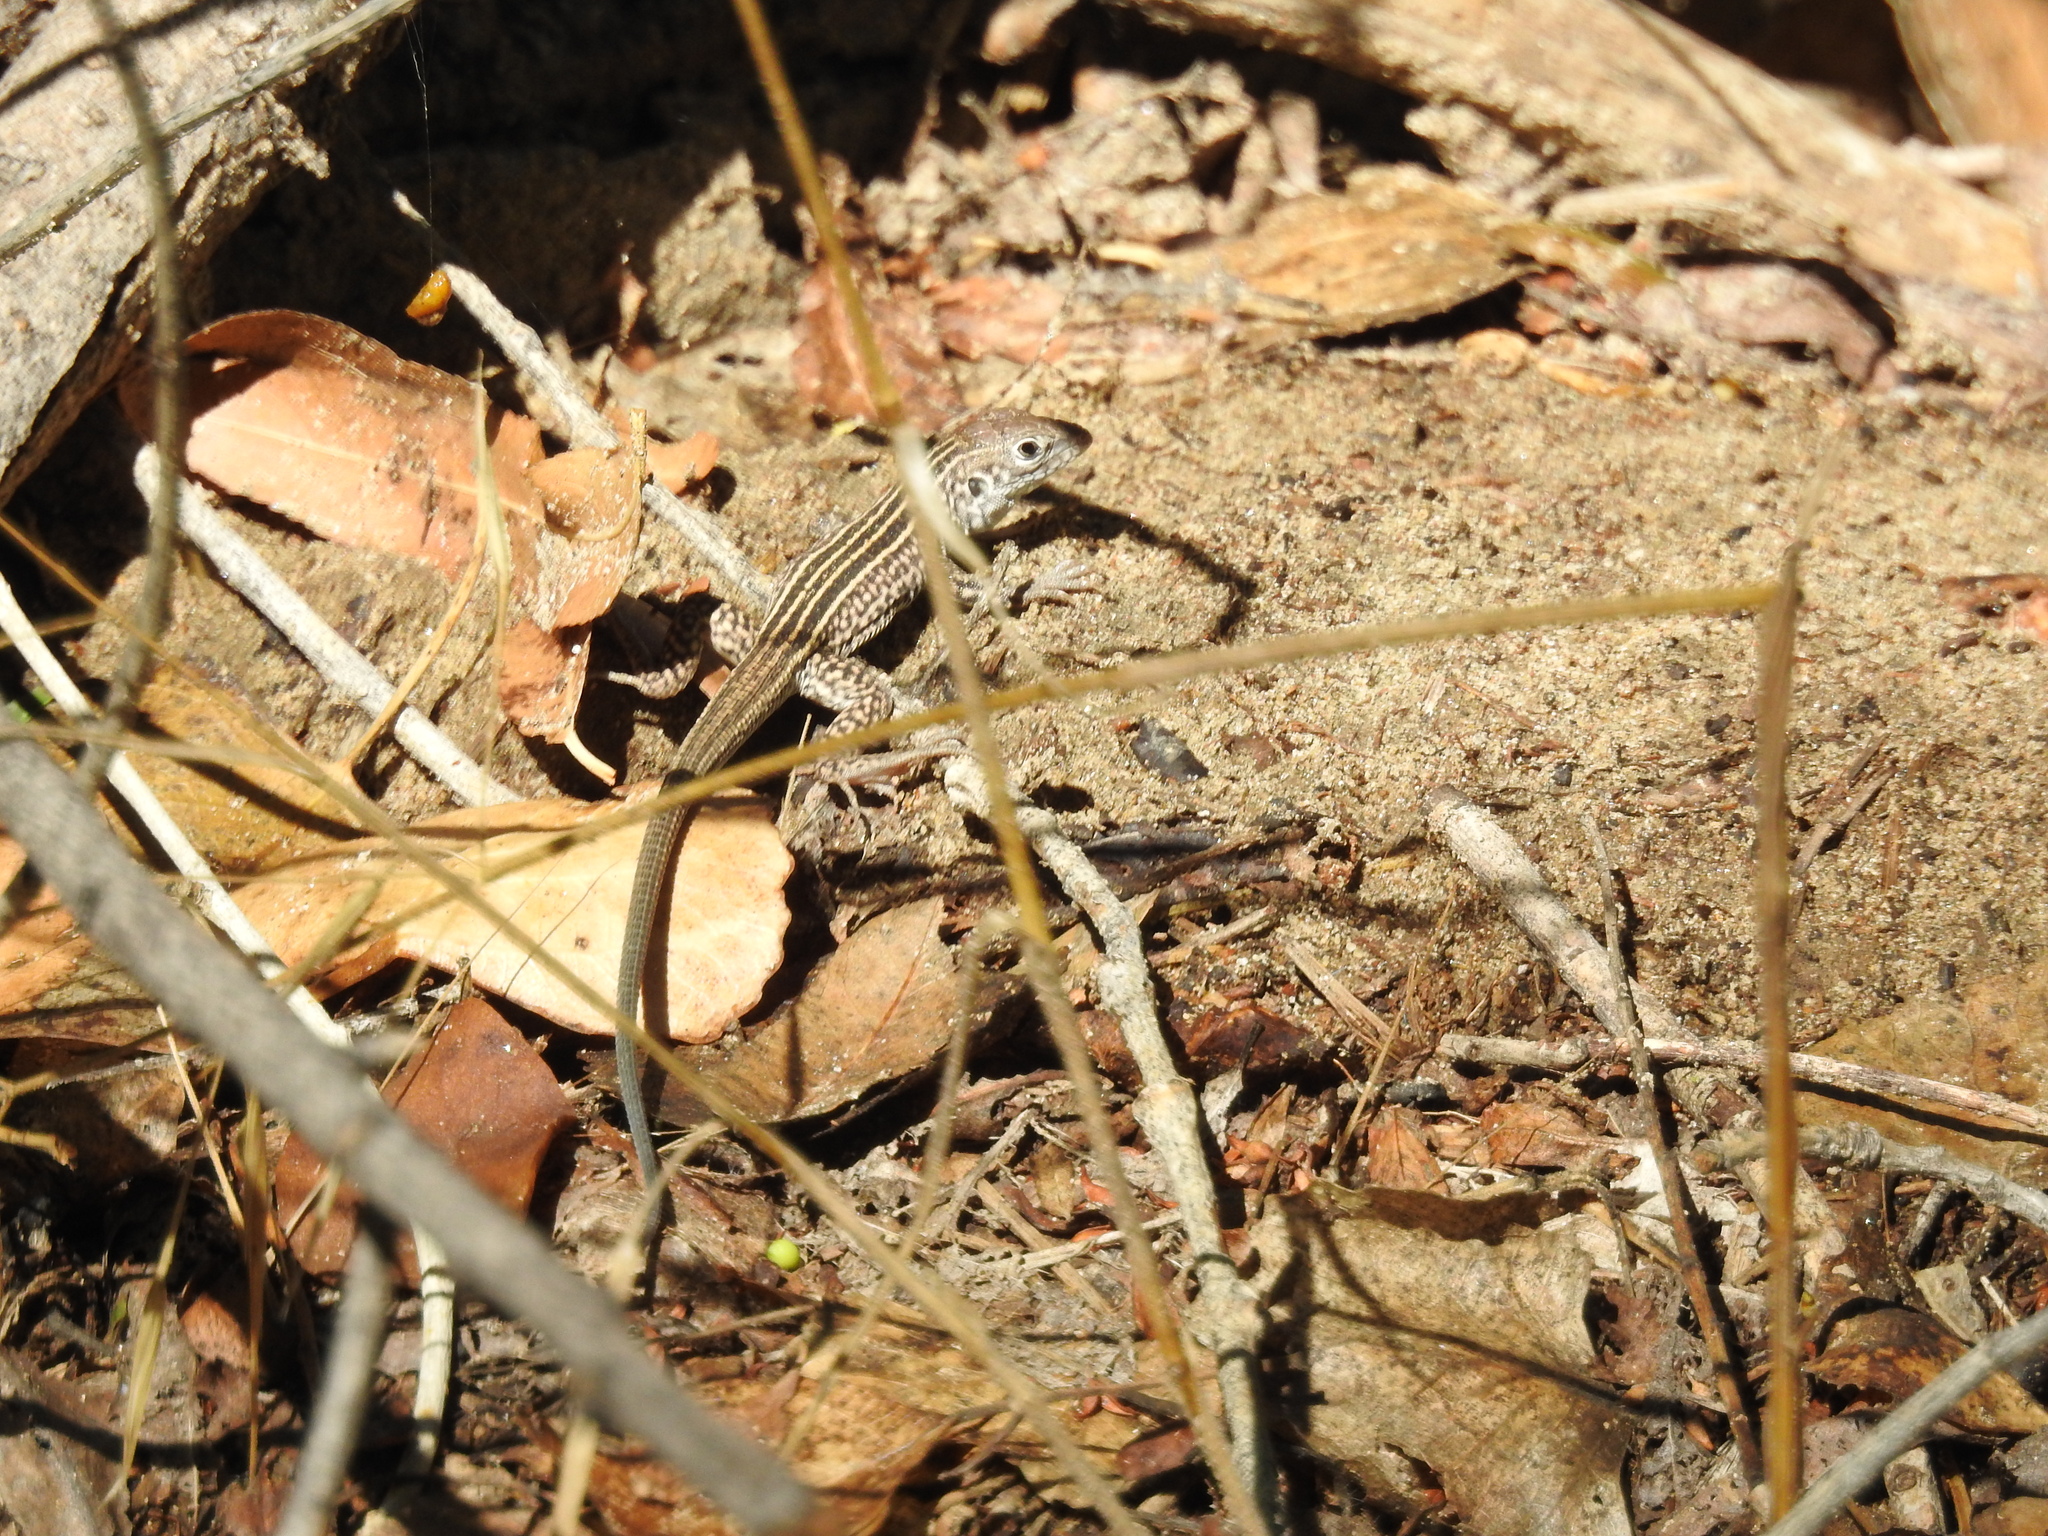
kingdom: Animalia
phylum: Chordata
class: Squamata
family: Teiidae
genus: Aspidoscelis
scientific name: Aspidoscelis tigris
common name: Tiger whiptail
